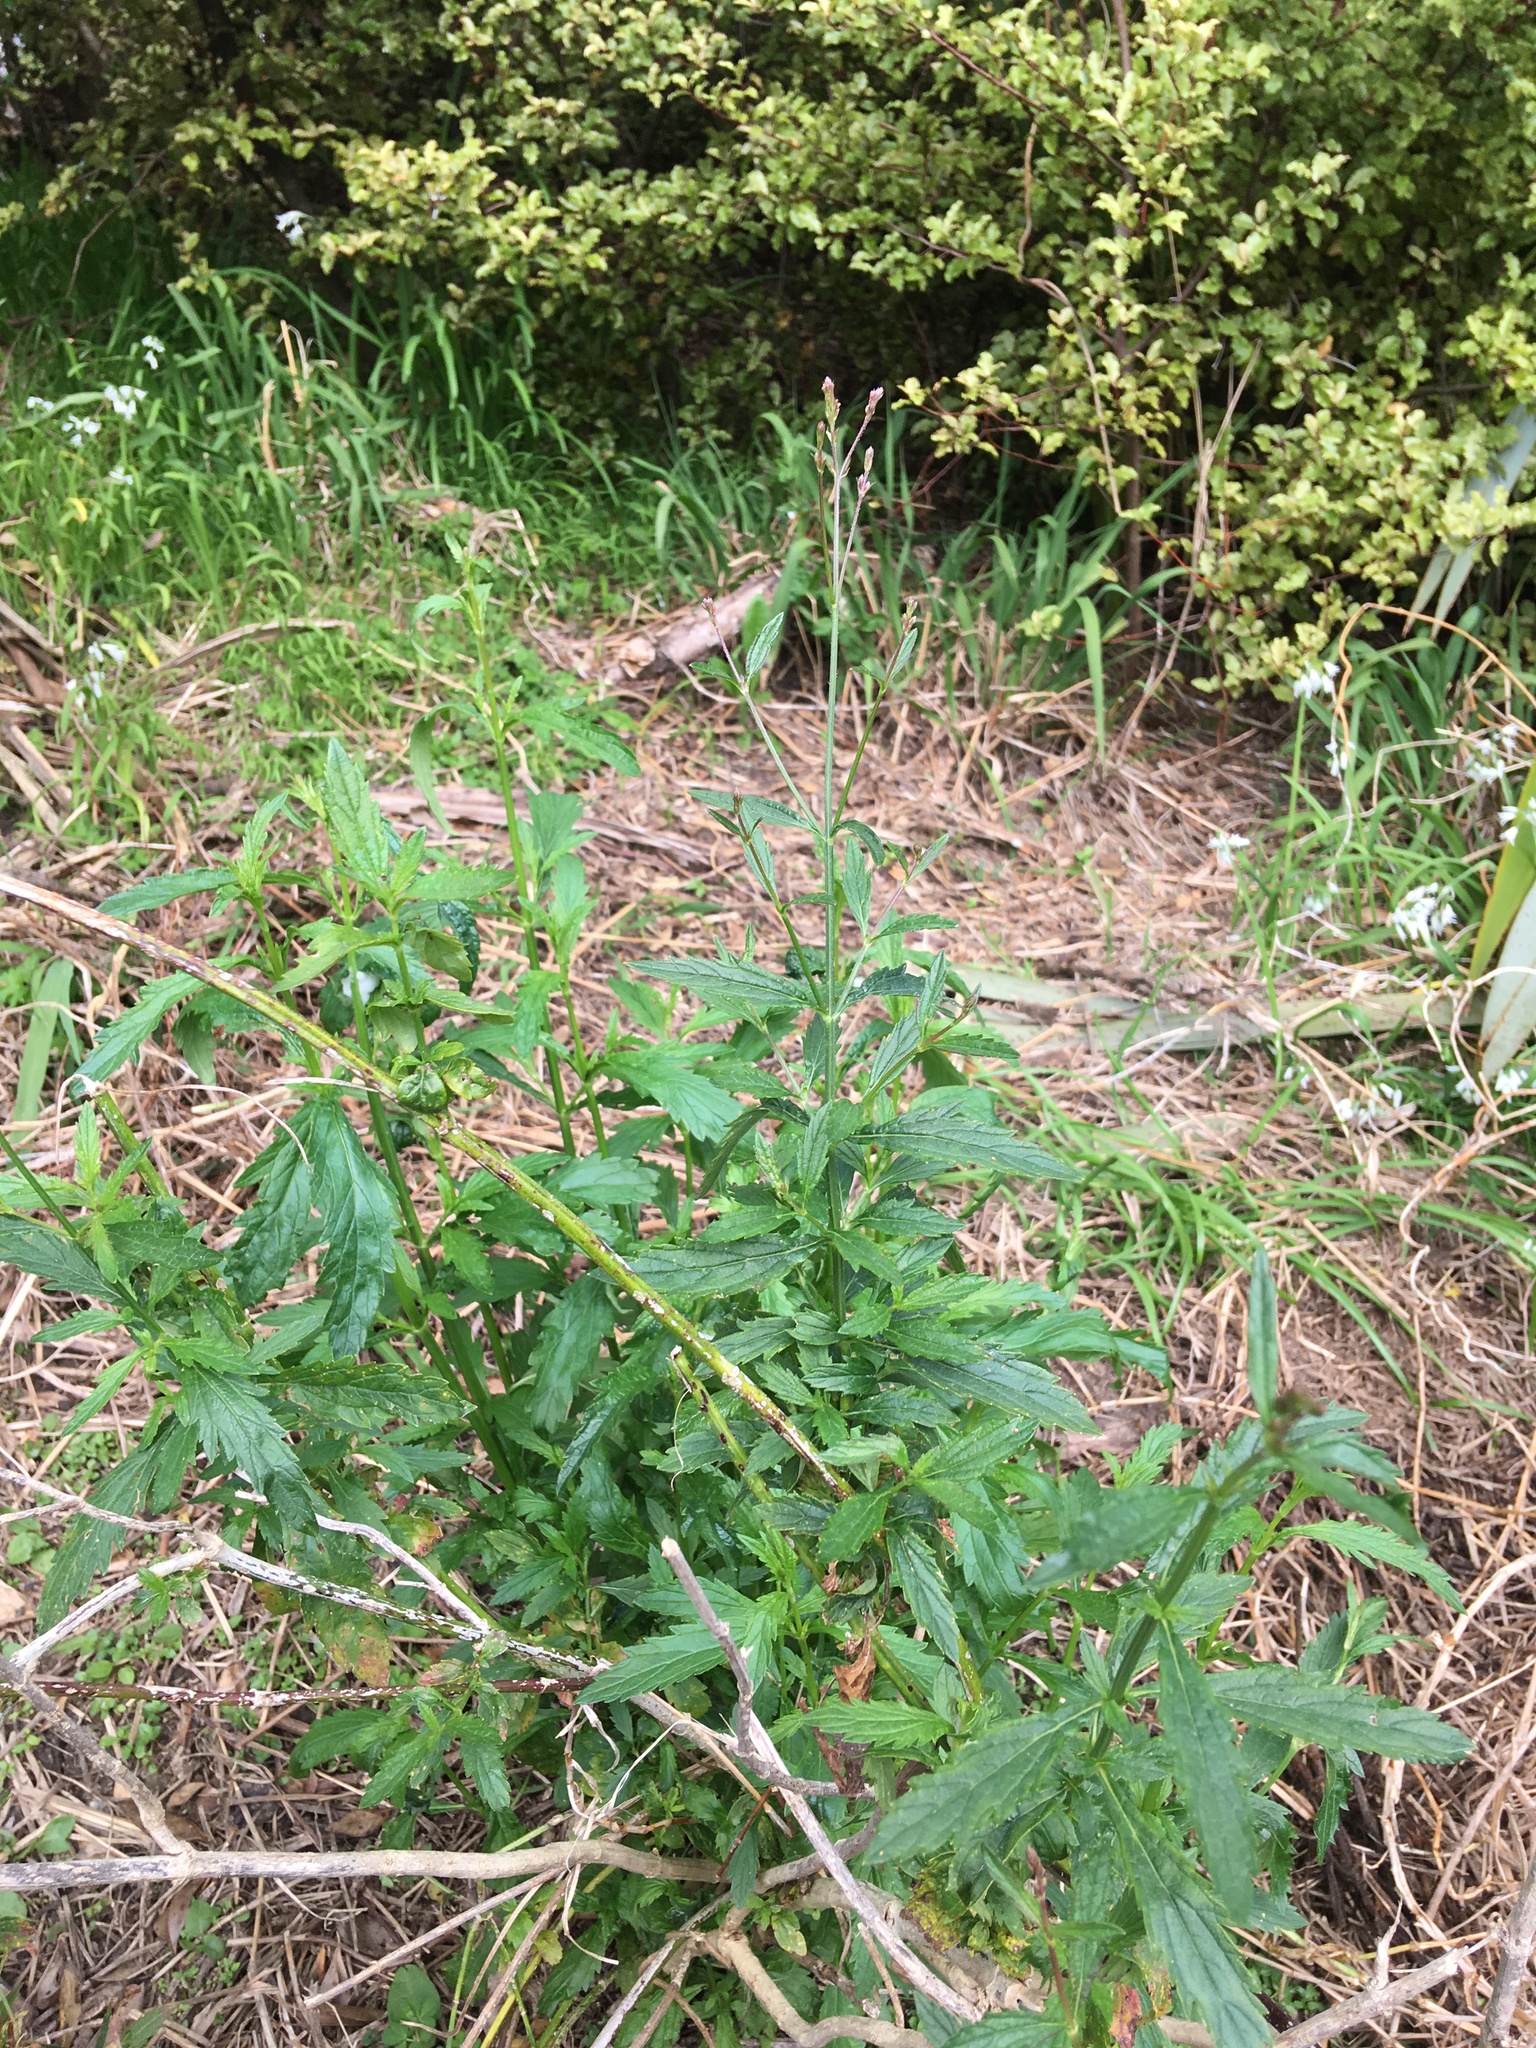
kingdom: Plantae
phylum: Tracheophyta
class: Magnoliopsida
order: Lamiales
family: Verbenaceae
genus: Verbena
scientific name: Verbena litoralis
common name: Seashore vervain
